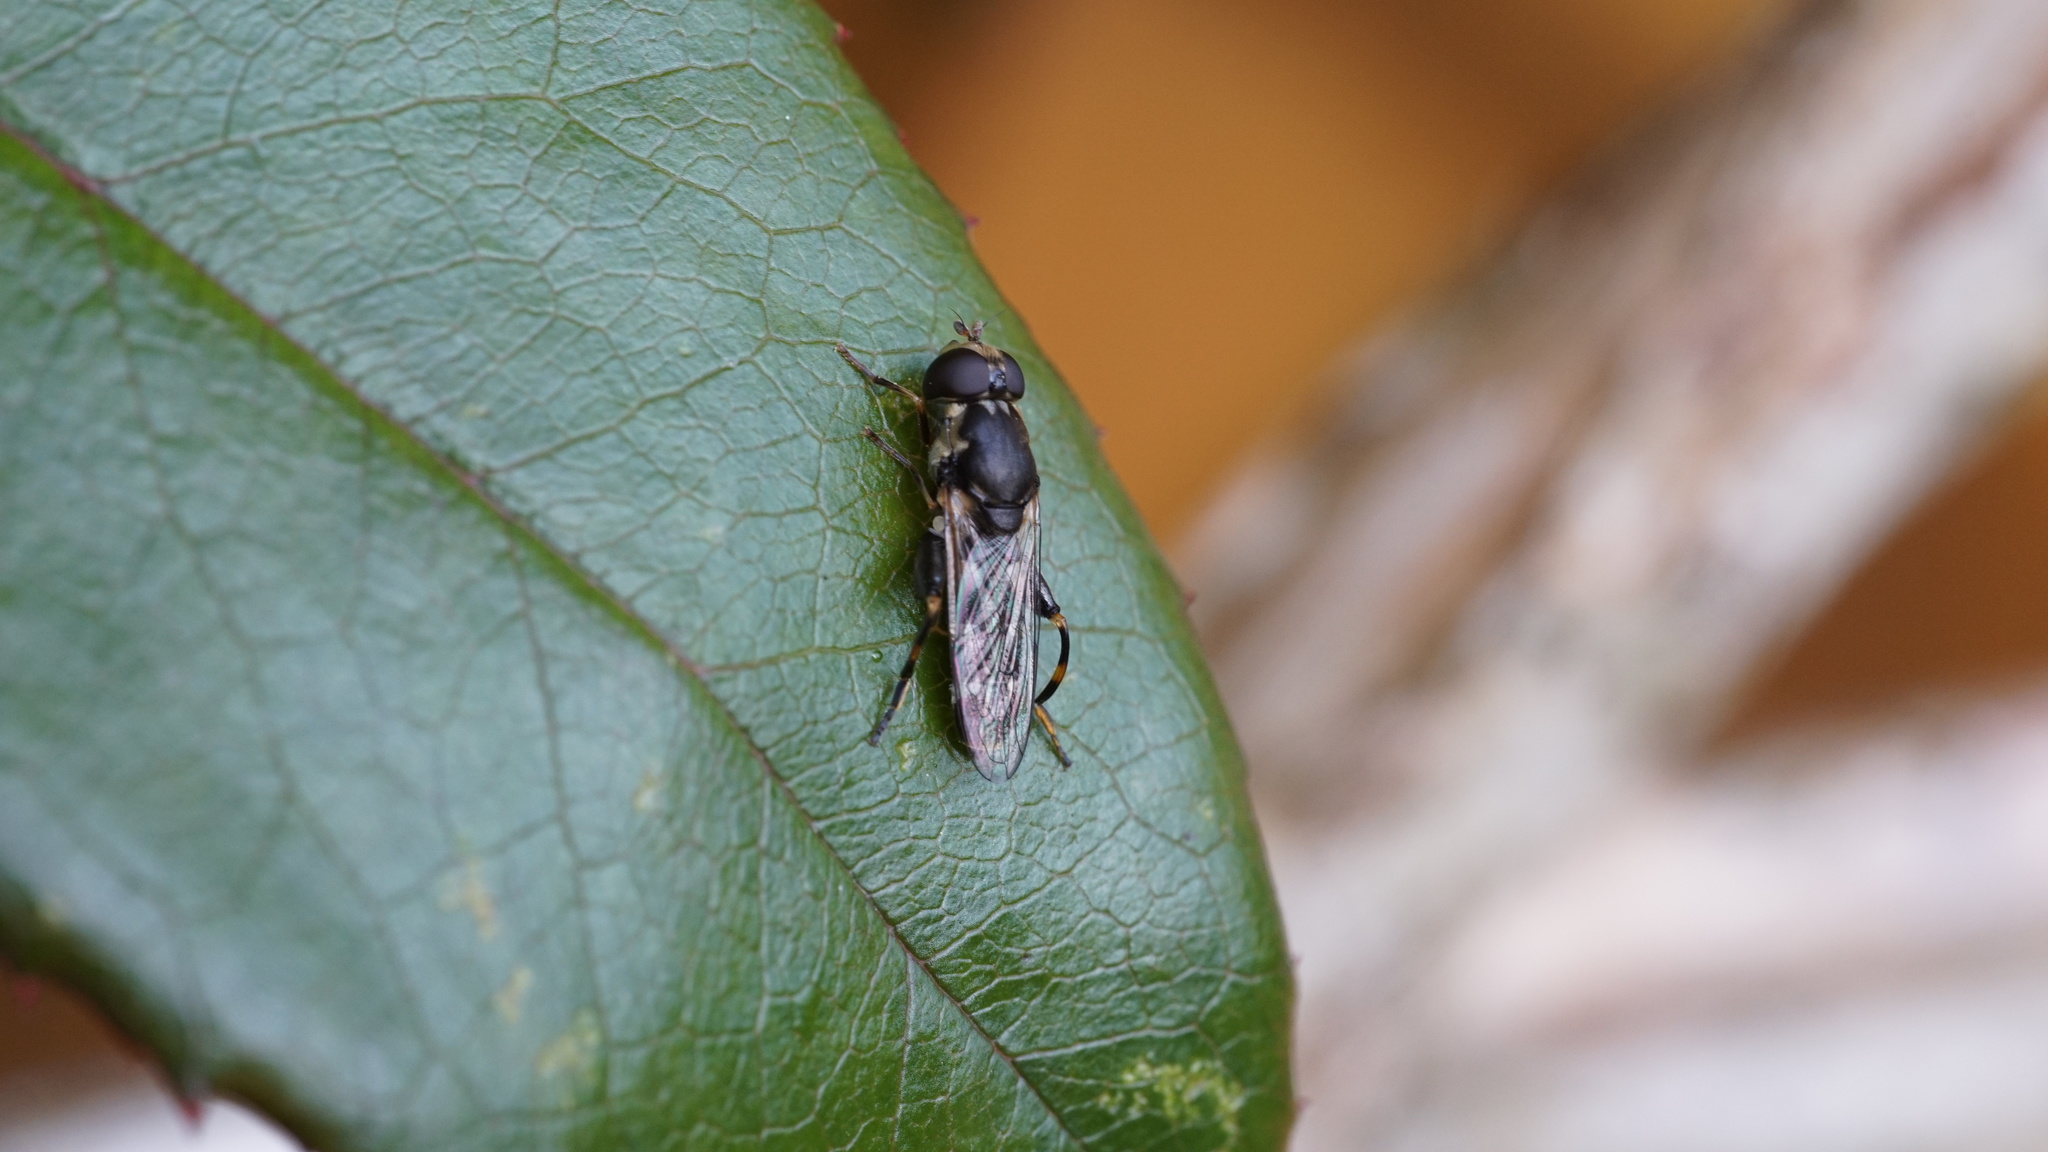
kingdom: Animalia
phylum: Arthropoda
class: Insecta
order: Diptera
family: Syrphidae
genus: Syritta
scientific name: Syritta pipiens
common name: Hover fly
